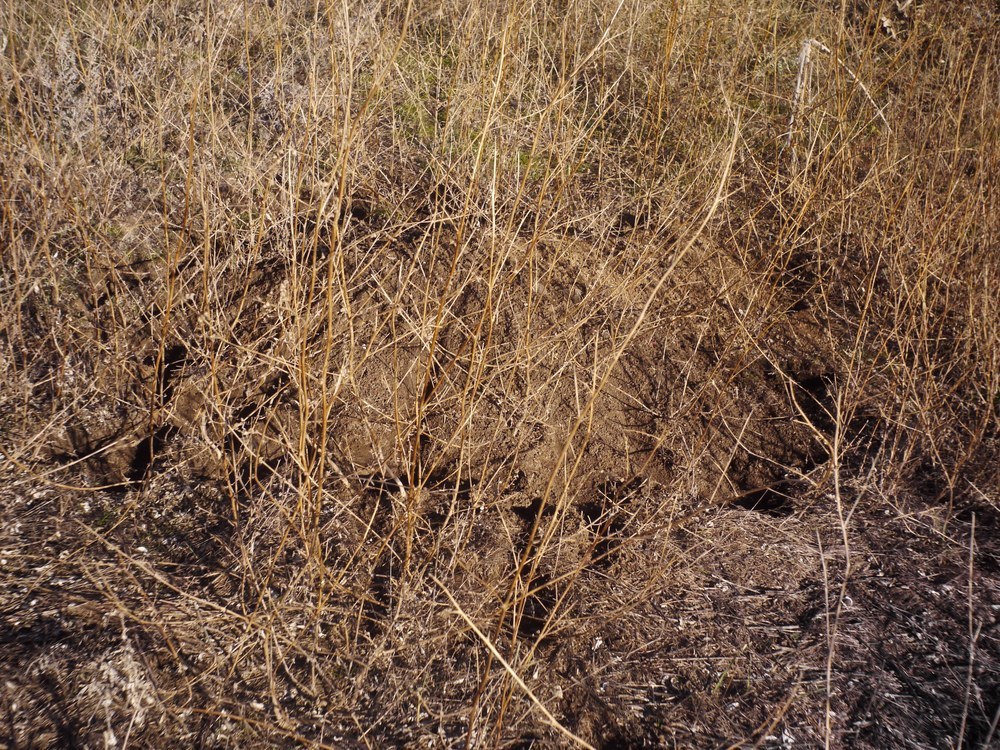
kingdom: Animalia
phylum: Chordata
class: Mammalia
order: Rodentia
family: Muridae
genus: Mus
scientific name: Mus spicilegus
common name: Mound-building mouse
